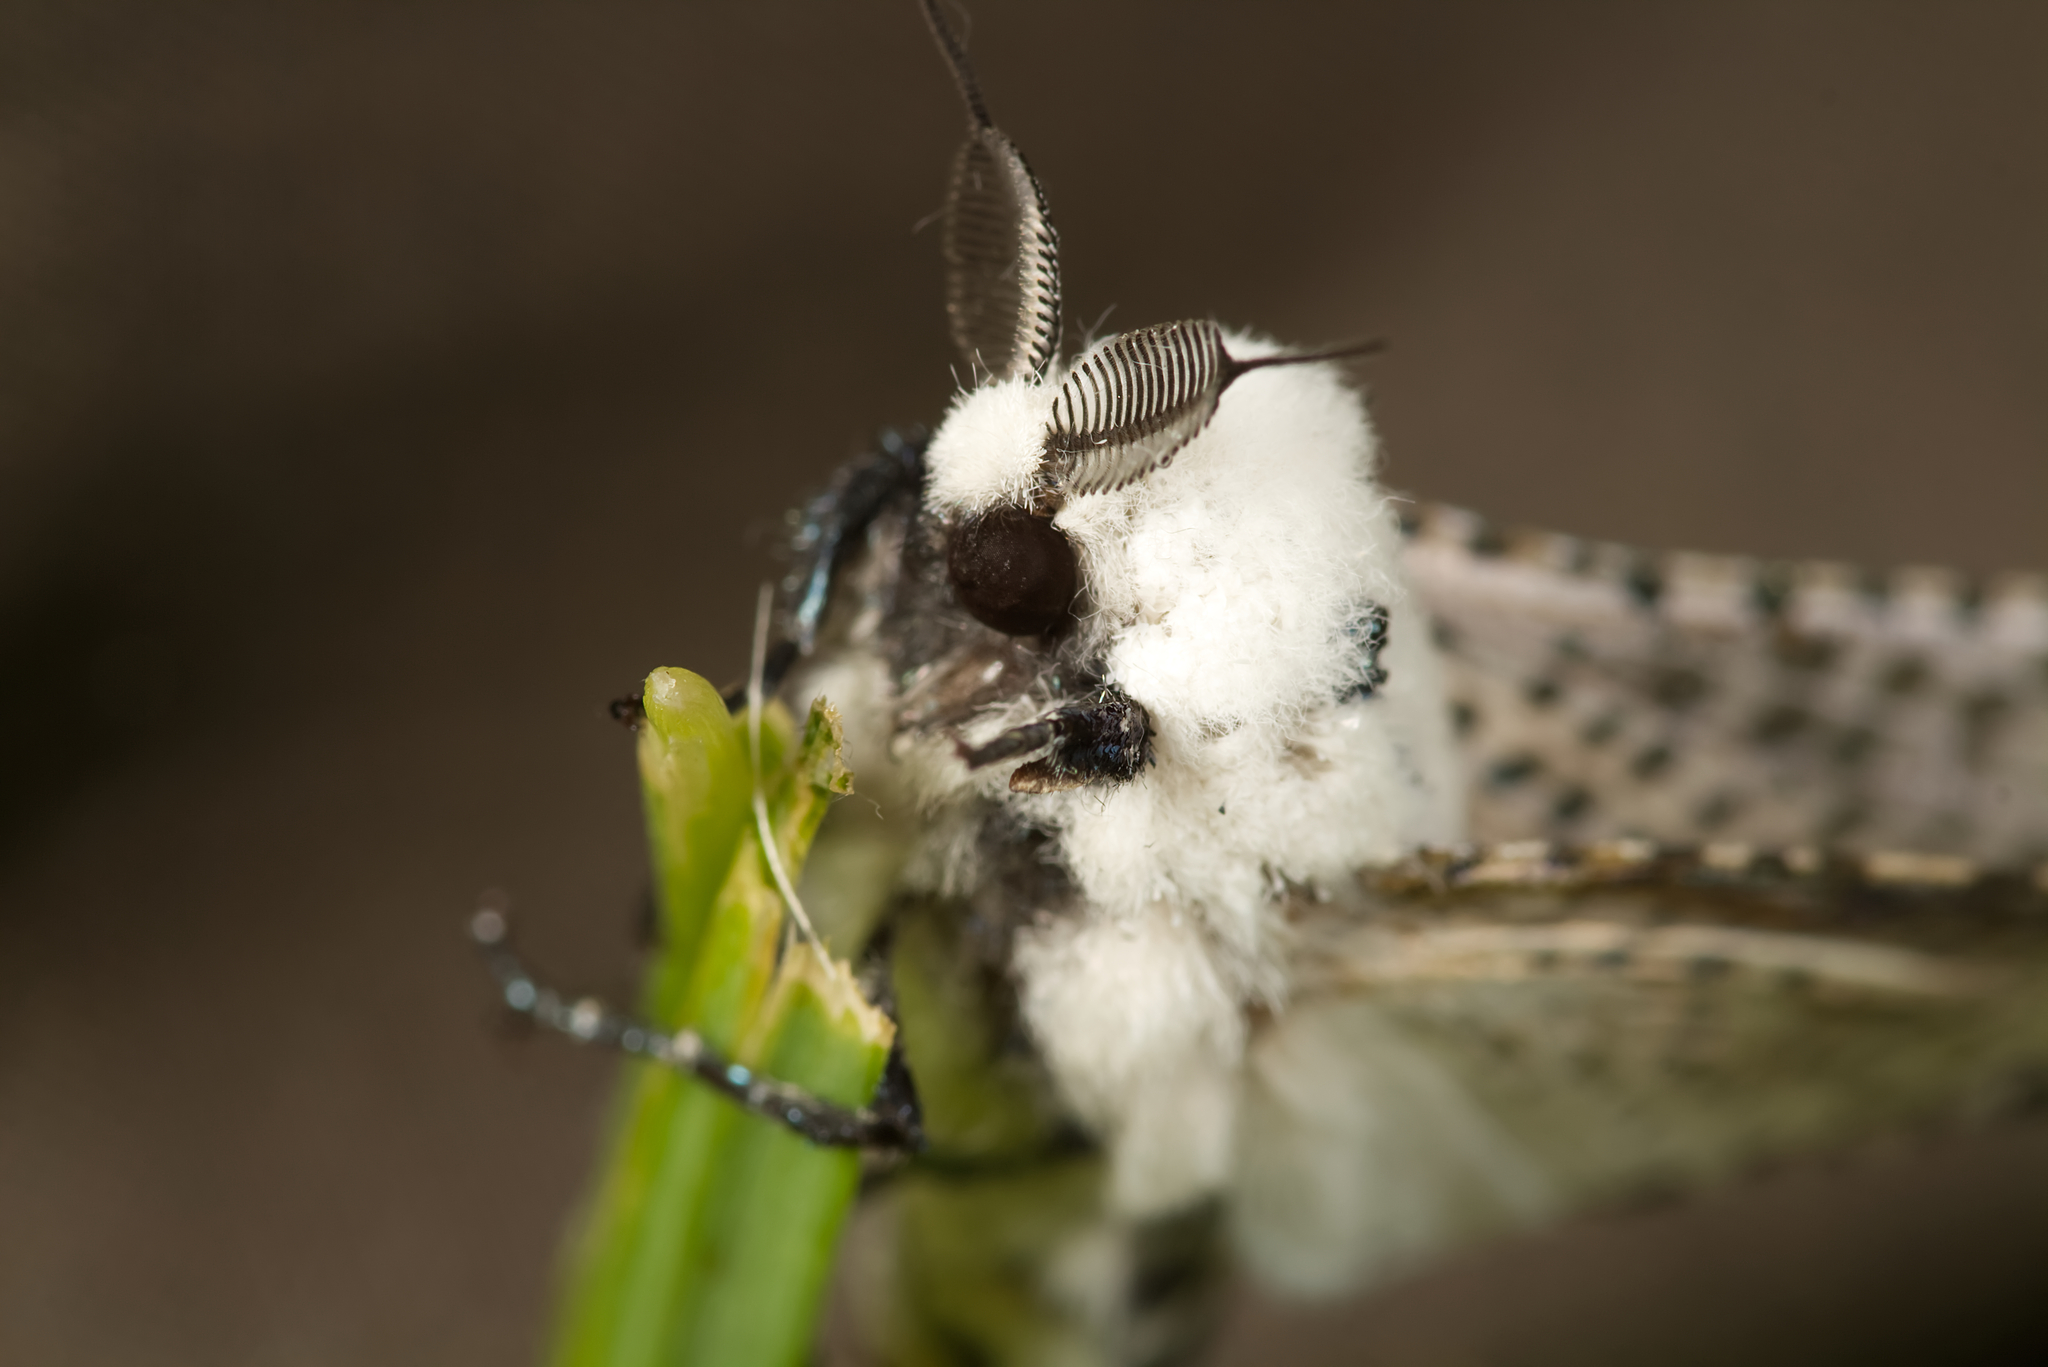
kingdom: Animalia
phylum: Arthropoda
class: Insecta
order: Lepidoptera
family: Cossidae
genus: Zeuzera
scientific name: Zeuzera pyrina
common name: Leopard moth
